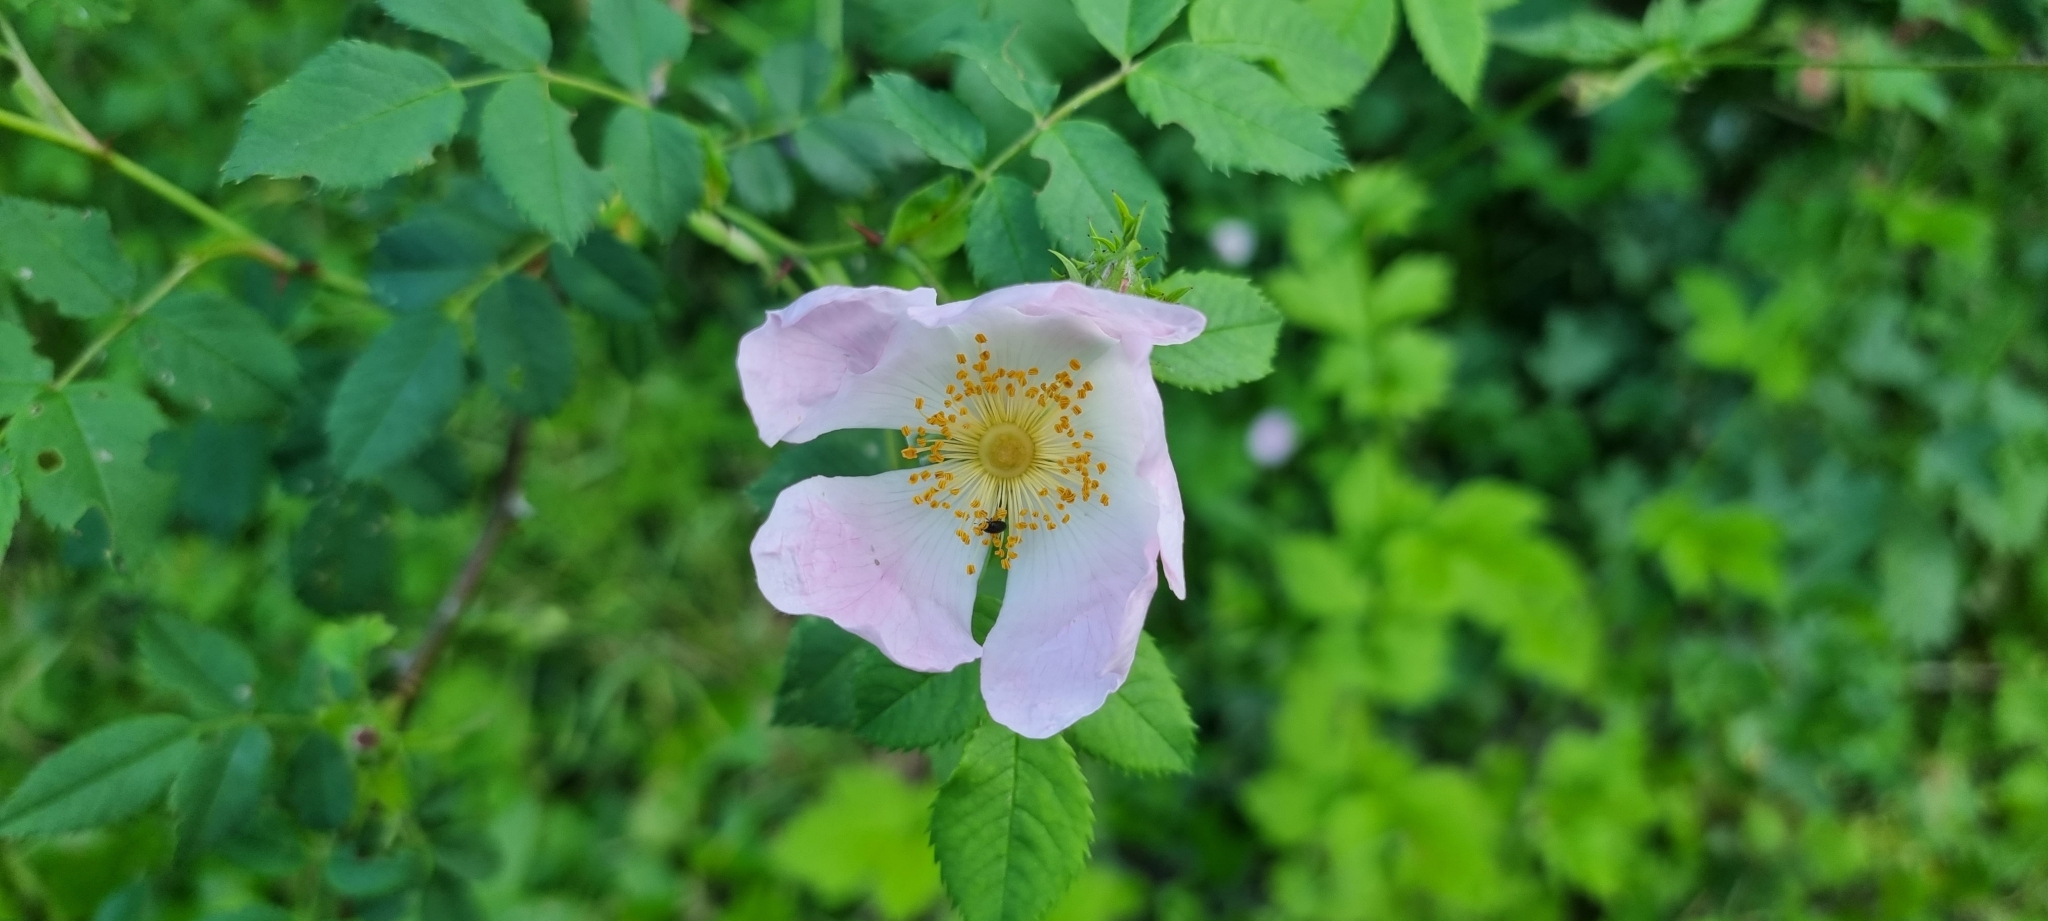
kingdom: Plantae
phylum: Tracheophyta
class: Magnoliopsida
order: Rosales
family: Rosaceae
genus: Rosa
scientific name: Rosa canina
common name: Dog rose
